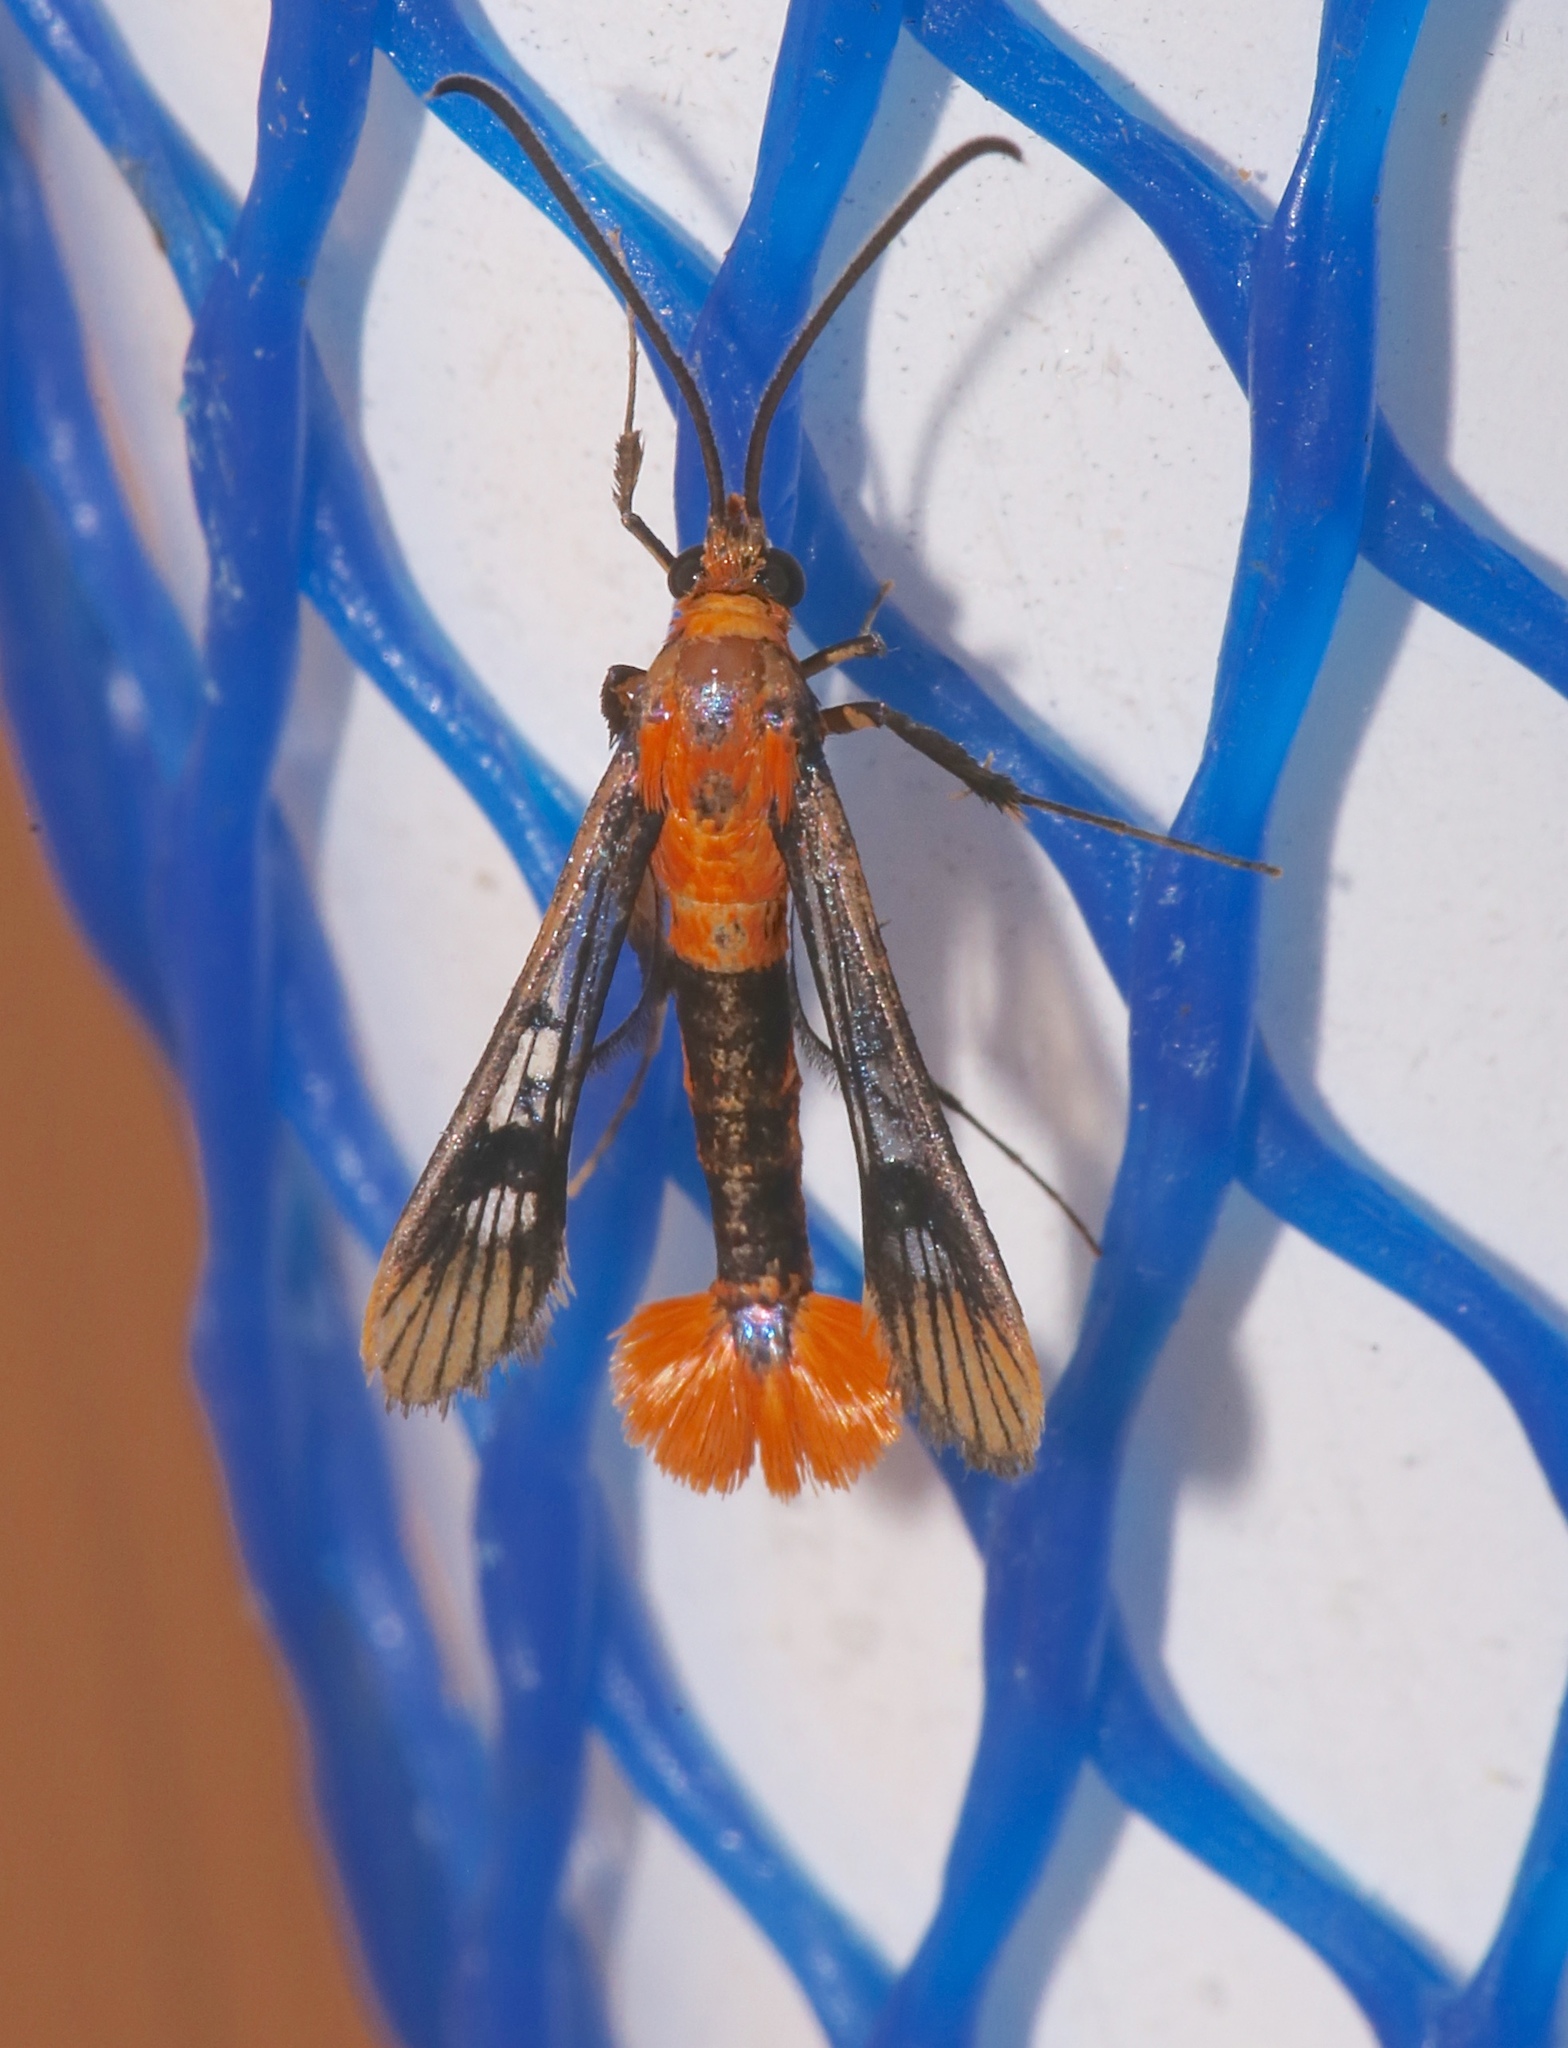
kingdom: Animalia
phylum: Arthropoda
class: Insecta
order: Lepidoptera
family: Sesiidae
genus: Synanthedon
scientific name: Synanthedon acerni
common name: Maple callus borer moth
